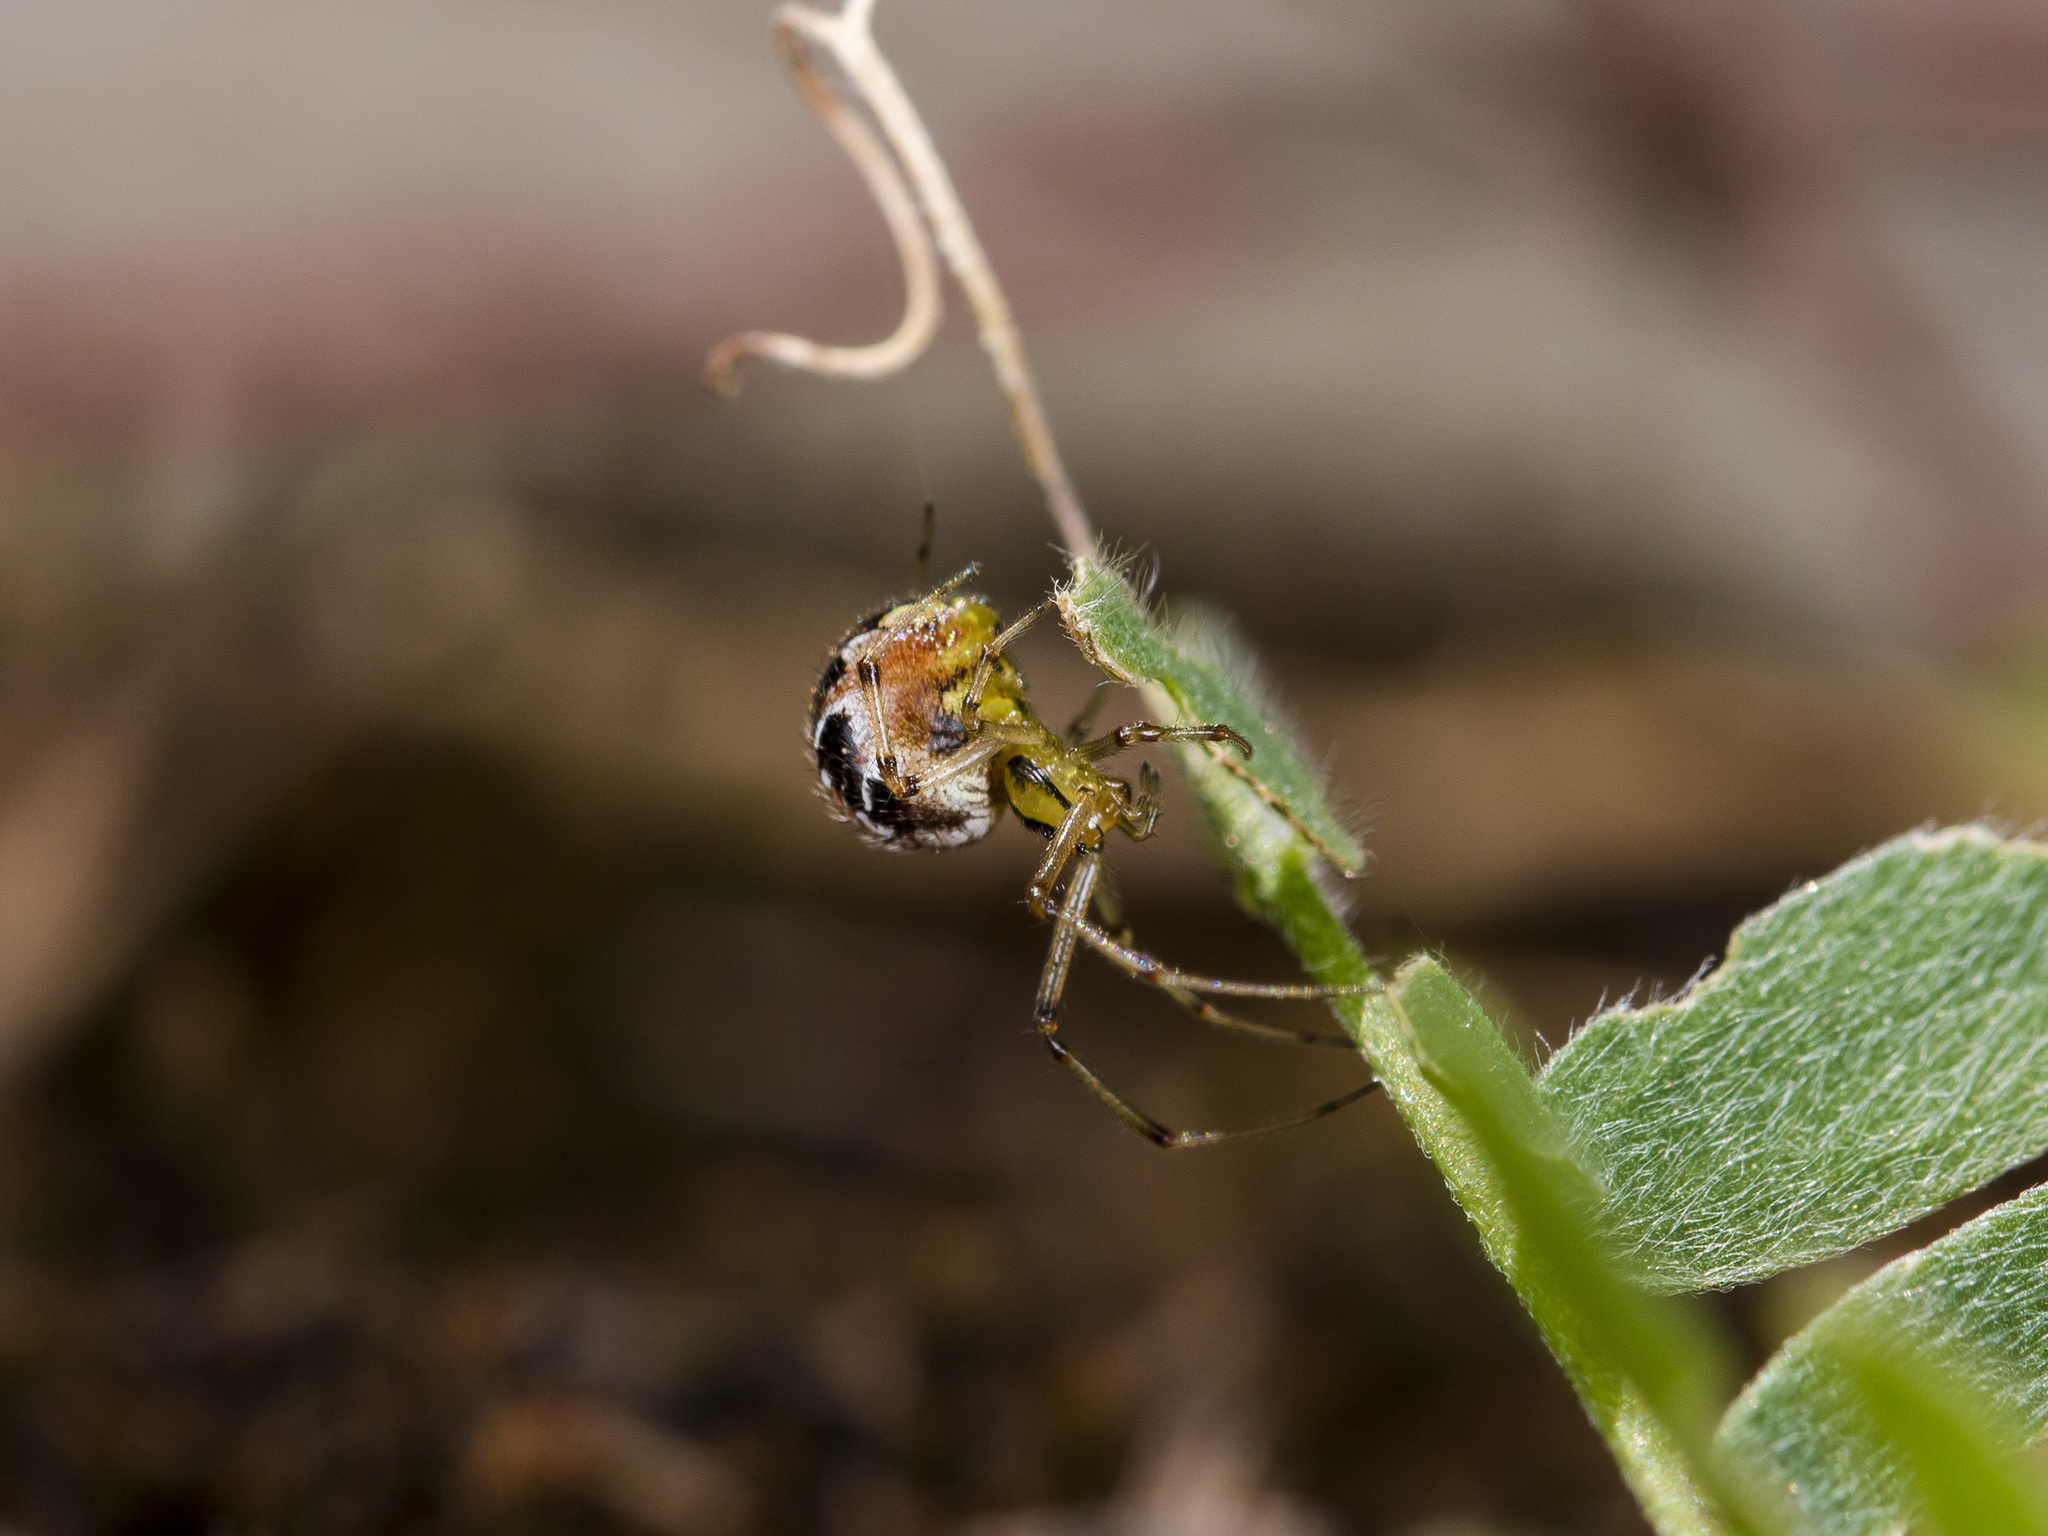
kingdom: Animalia
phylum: Arthropoda
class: Arachnida
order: Araneae
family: Theridiidae
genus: Phylloneta
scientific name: Phylloneta impressa
